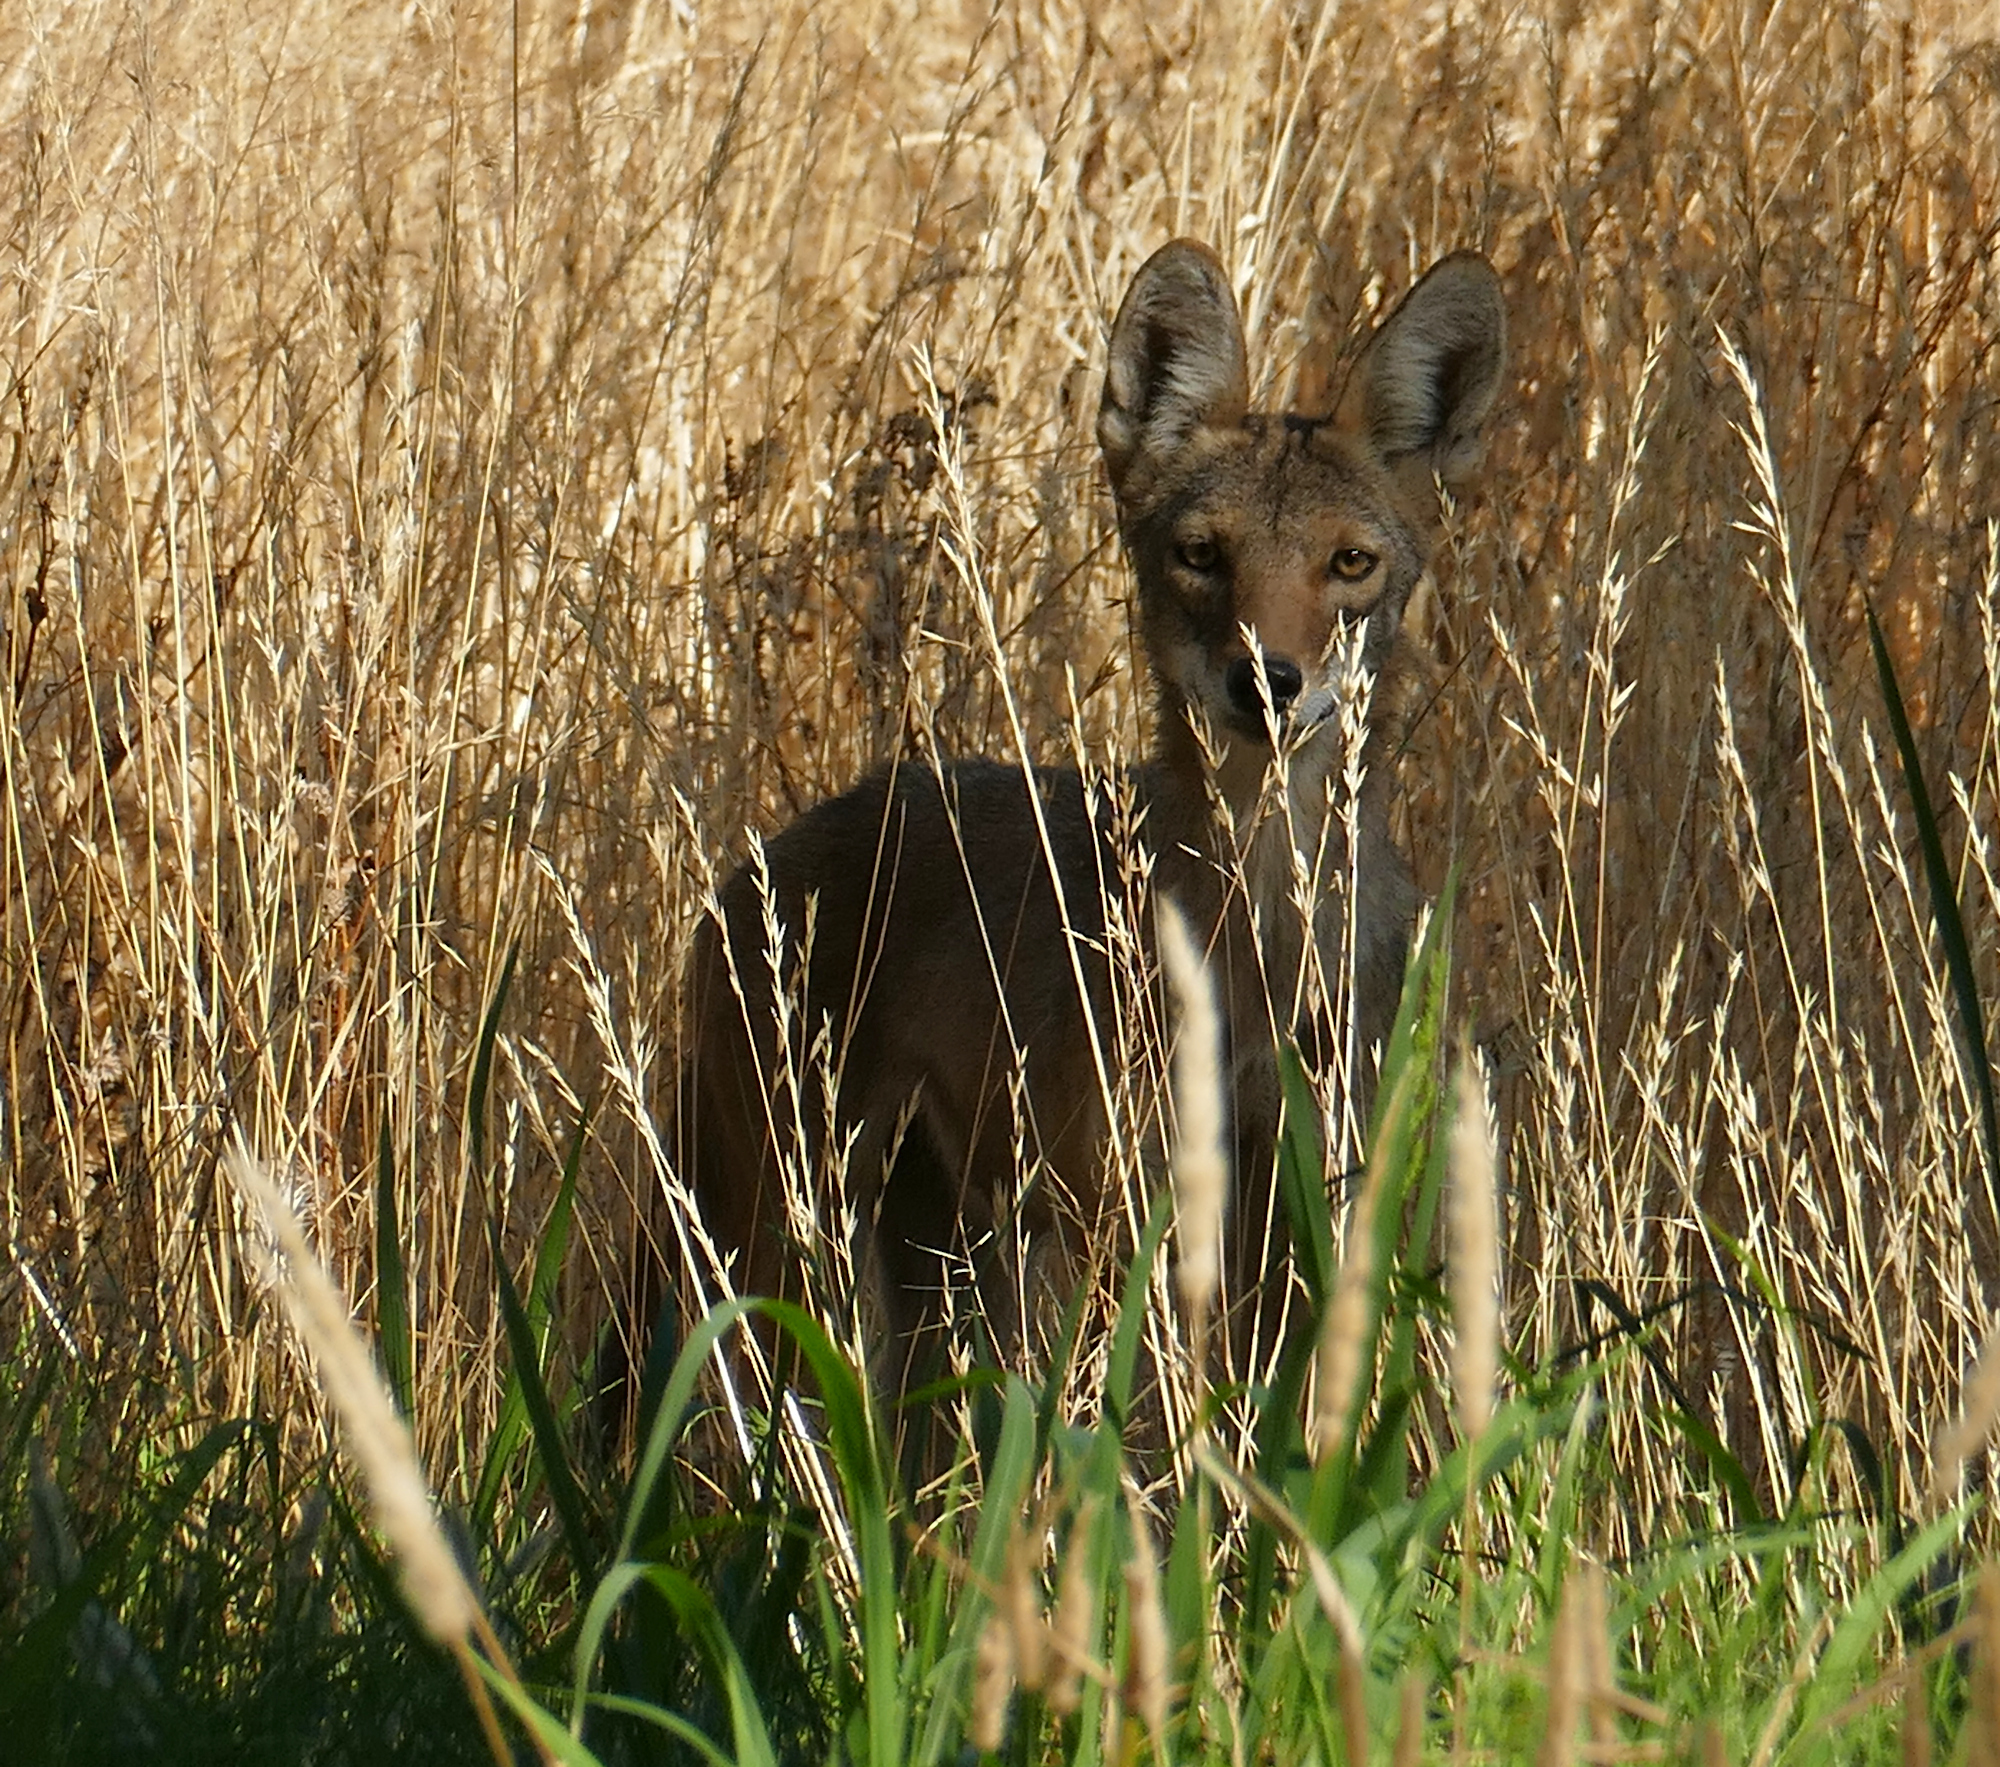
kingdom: Animalia
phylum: Chordata
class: Mammalia
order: Carnivora
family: Canidae
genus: Canis
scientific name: Canis latrans
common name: Coyote
